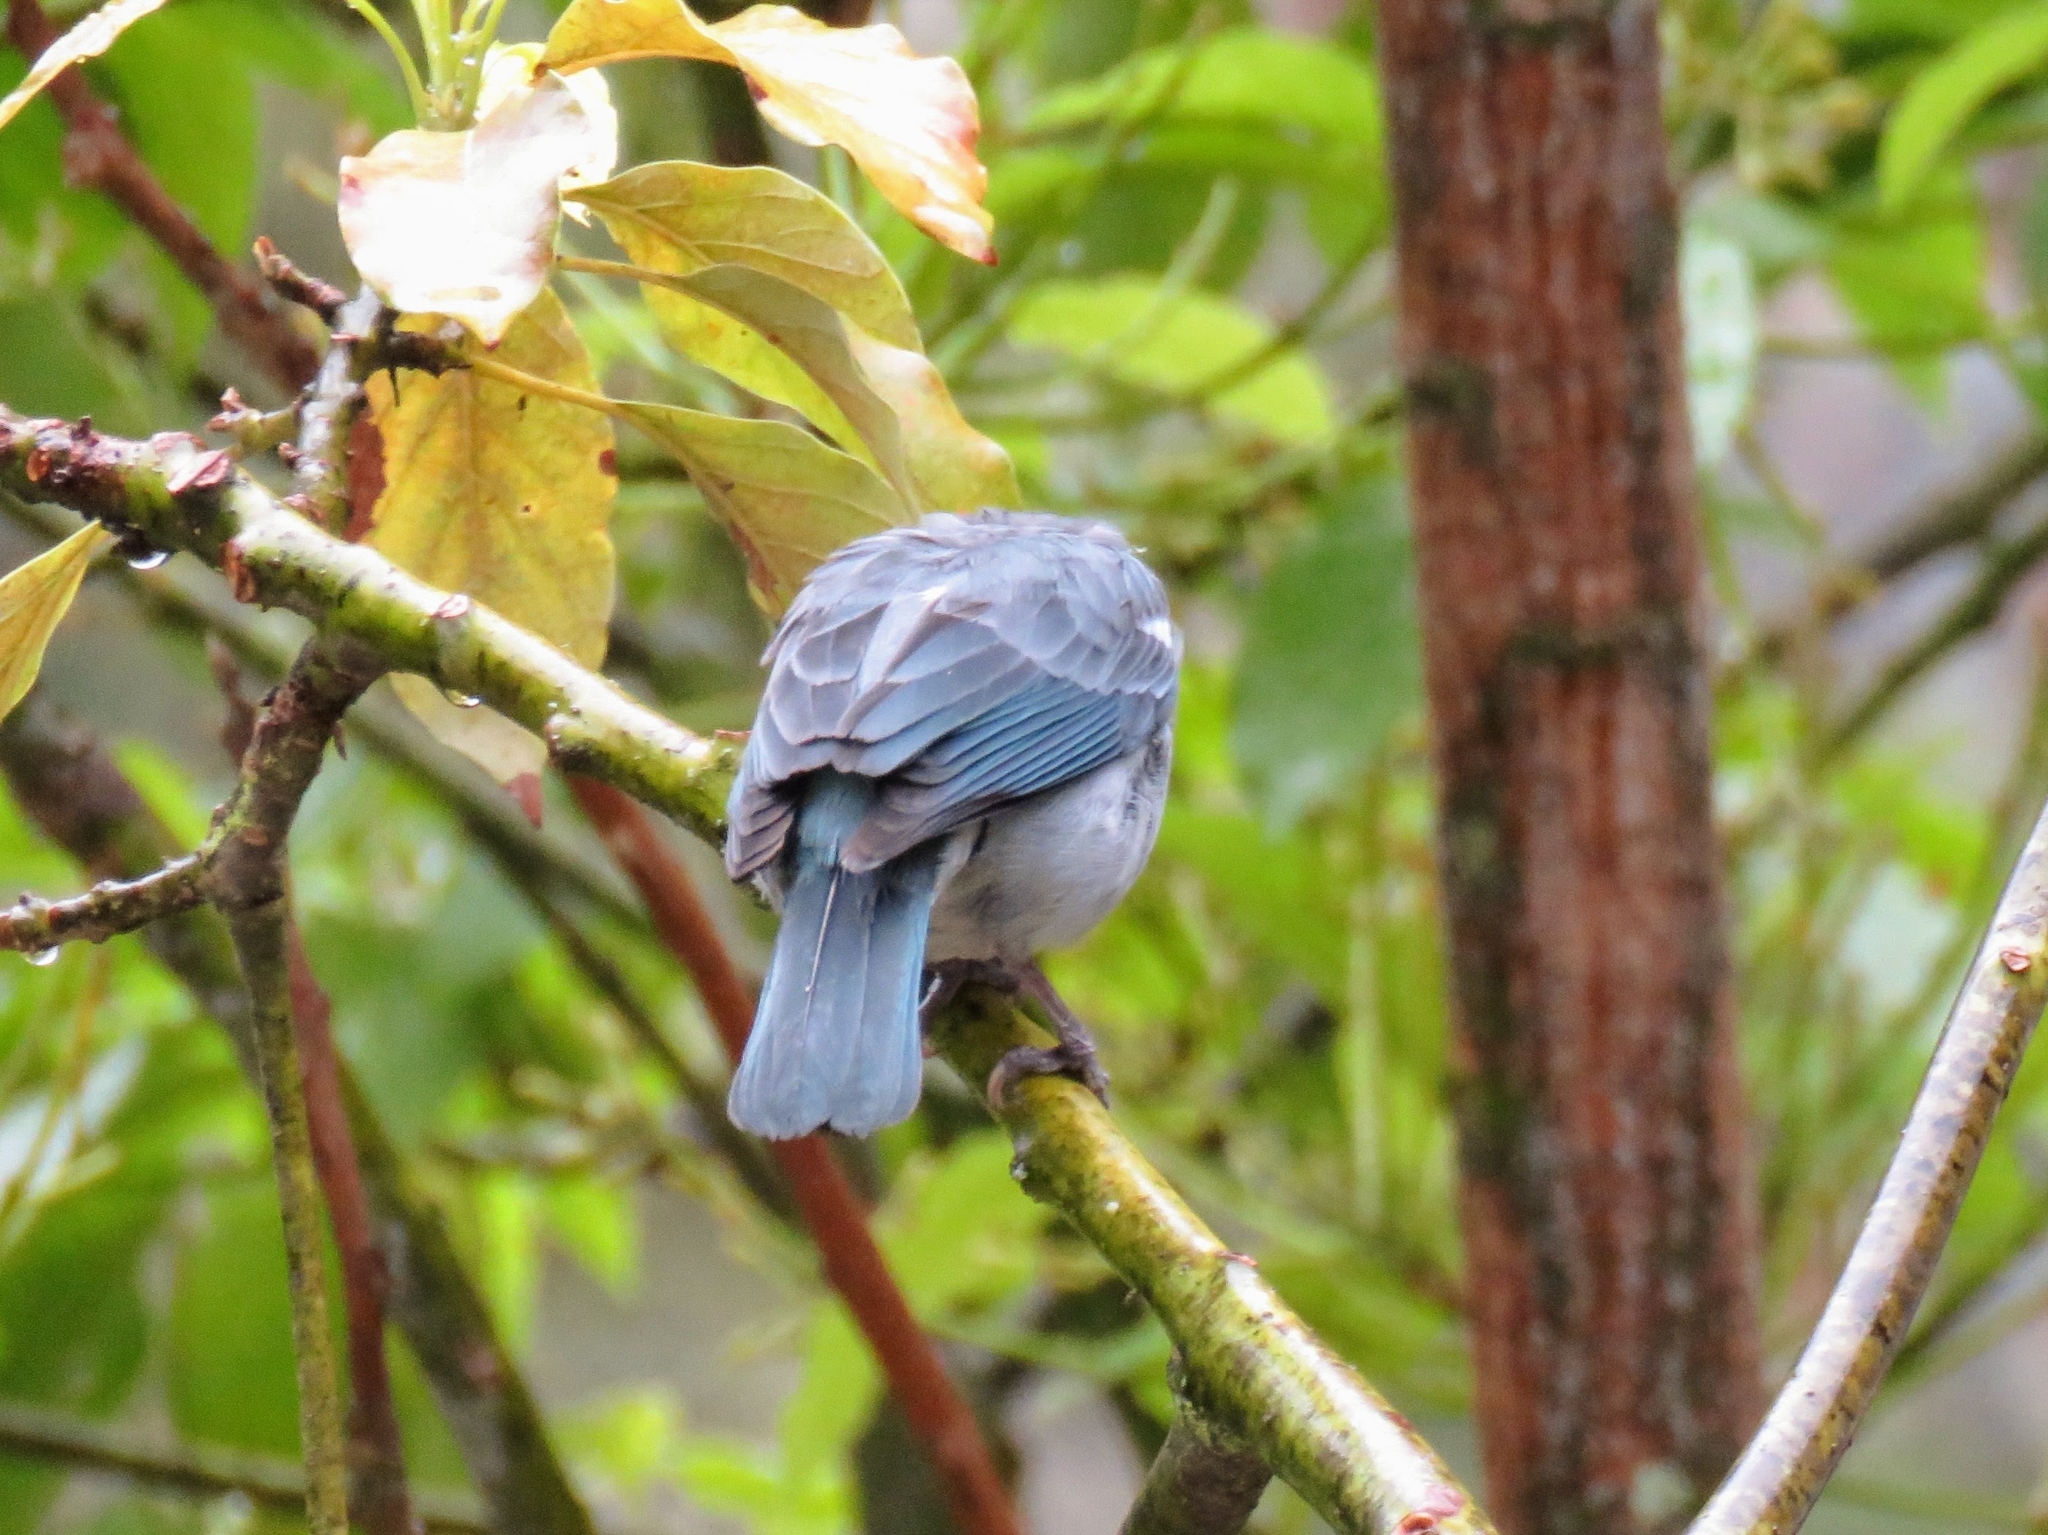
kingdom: Animalia
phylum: Chordata
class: Aves
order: Passeriformes
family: Thraupidae
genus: Thraupis
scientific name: Thraupis episcopus
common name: Blue-grey tanager
